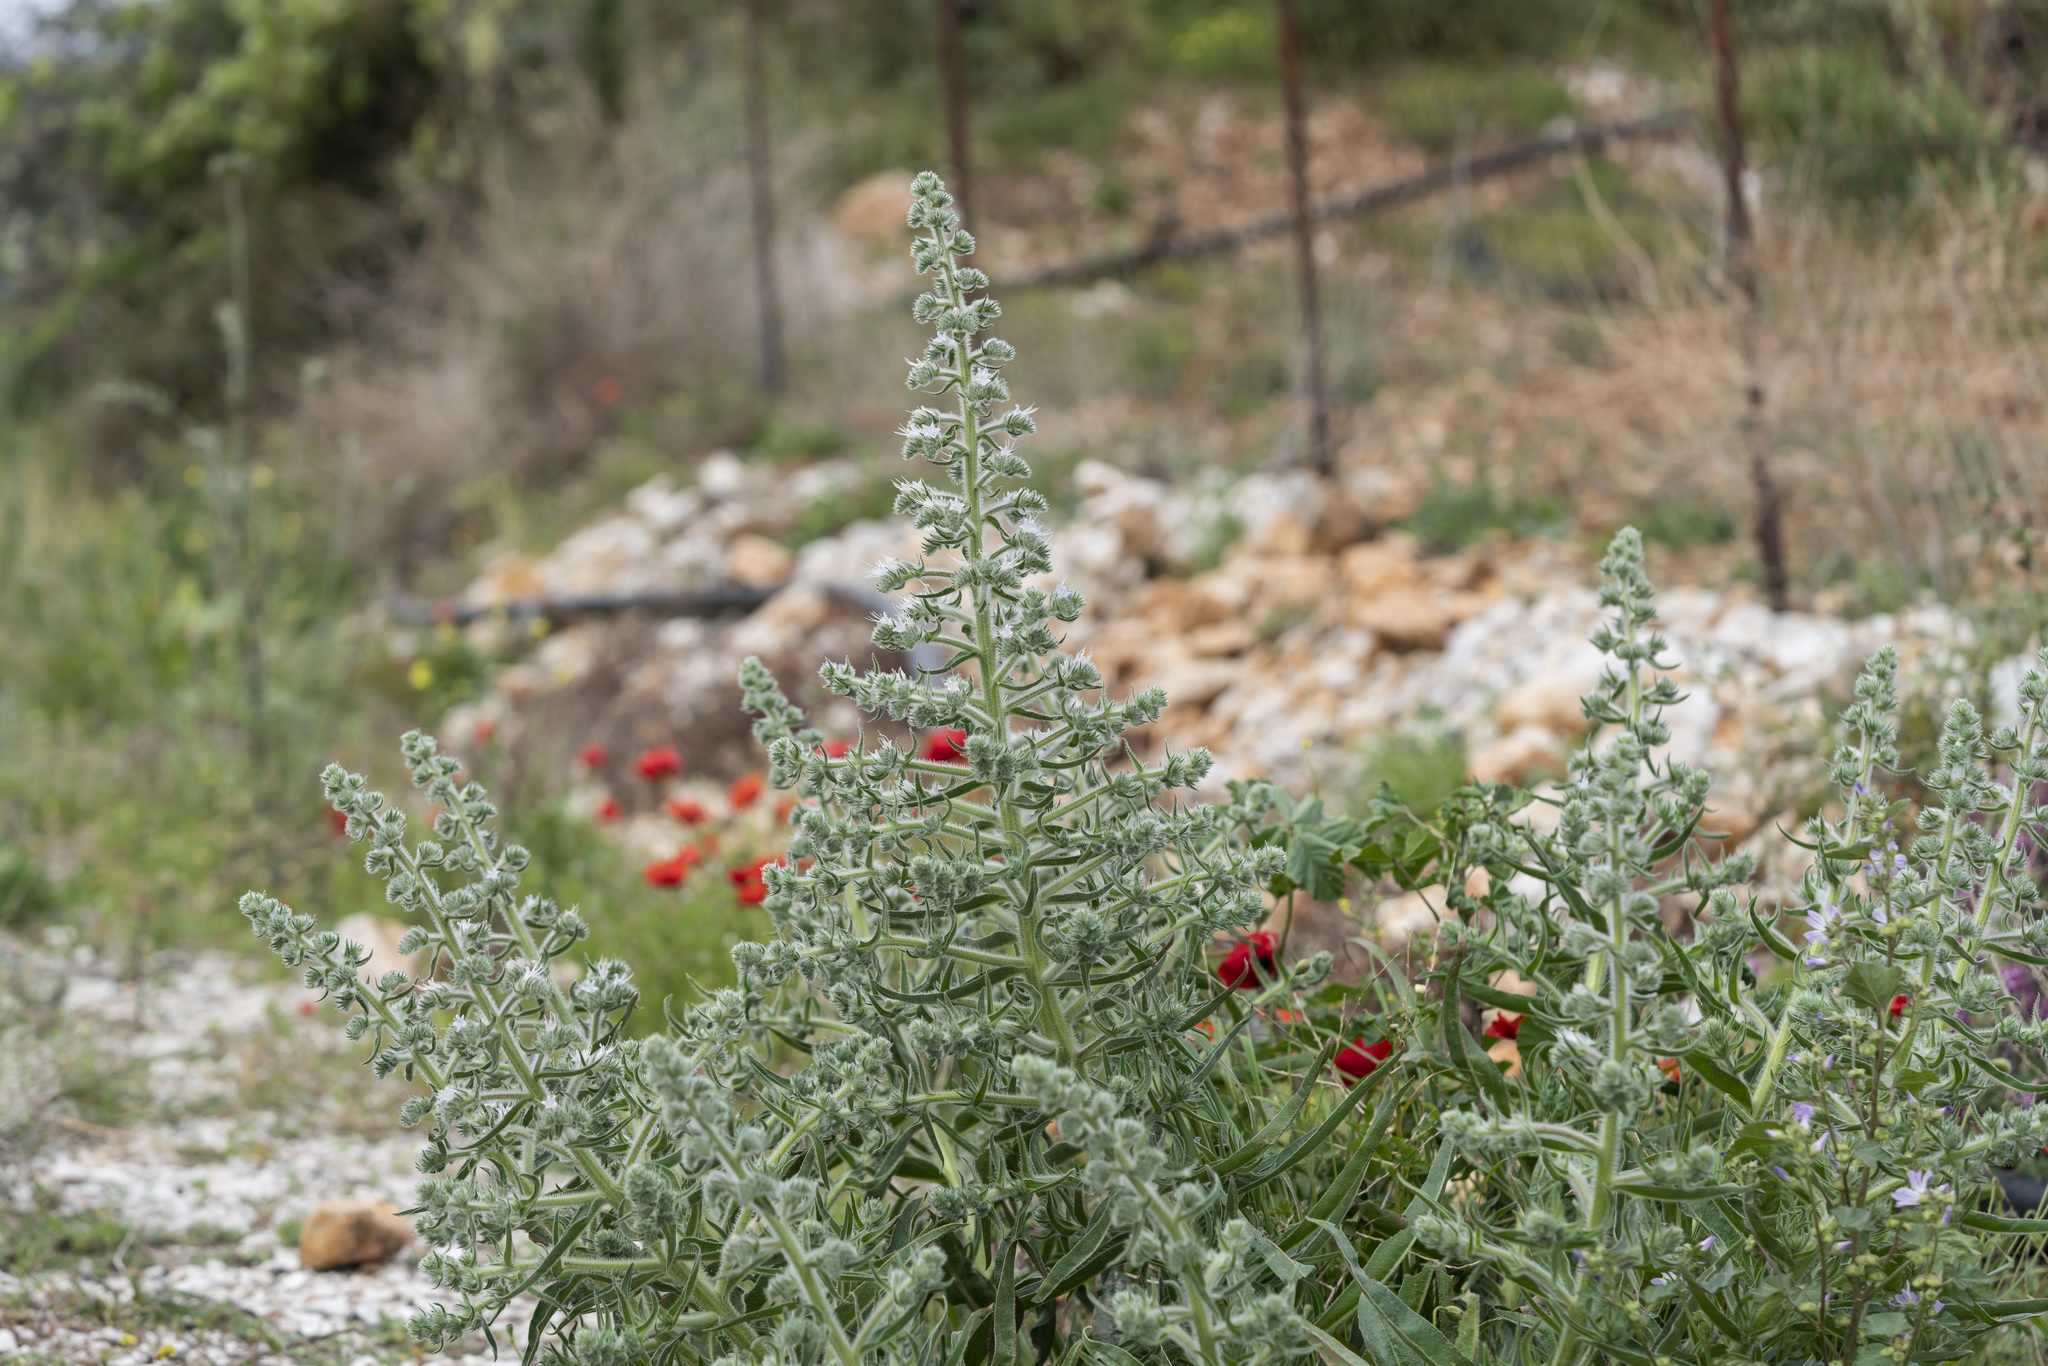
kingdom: Plantae
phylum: Tracheophyta
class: Magnoliopsida
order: Boraginales
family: Boraginaceae
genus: Echium
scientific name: Echium italicum
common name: Italian viper's bugloss
